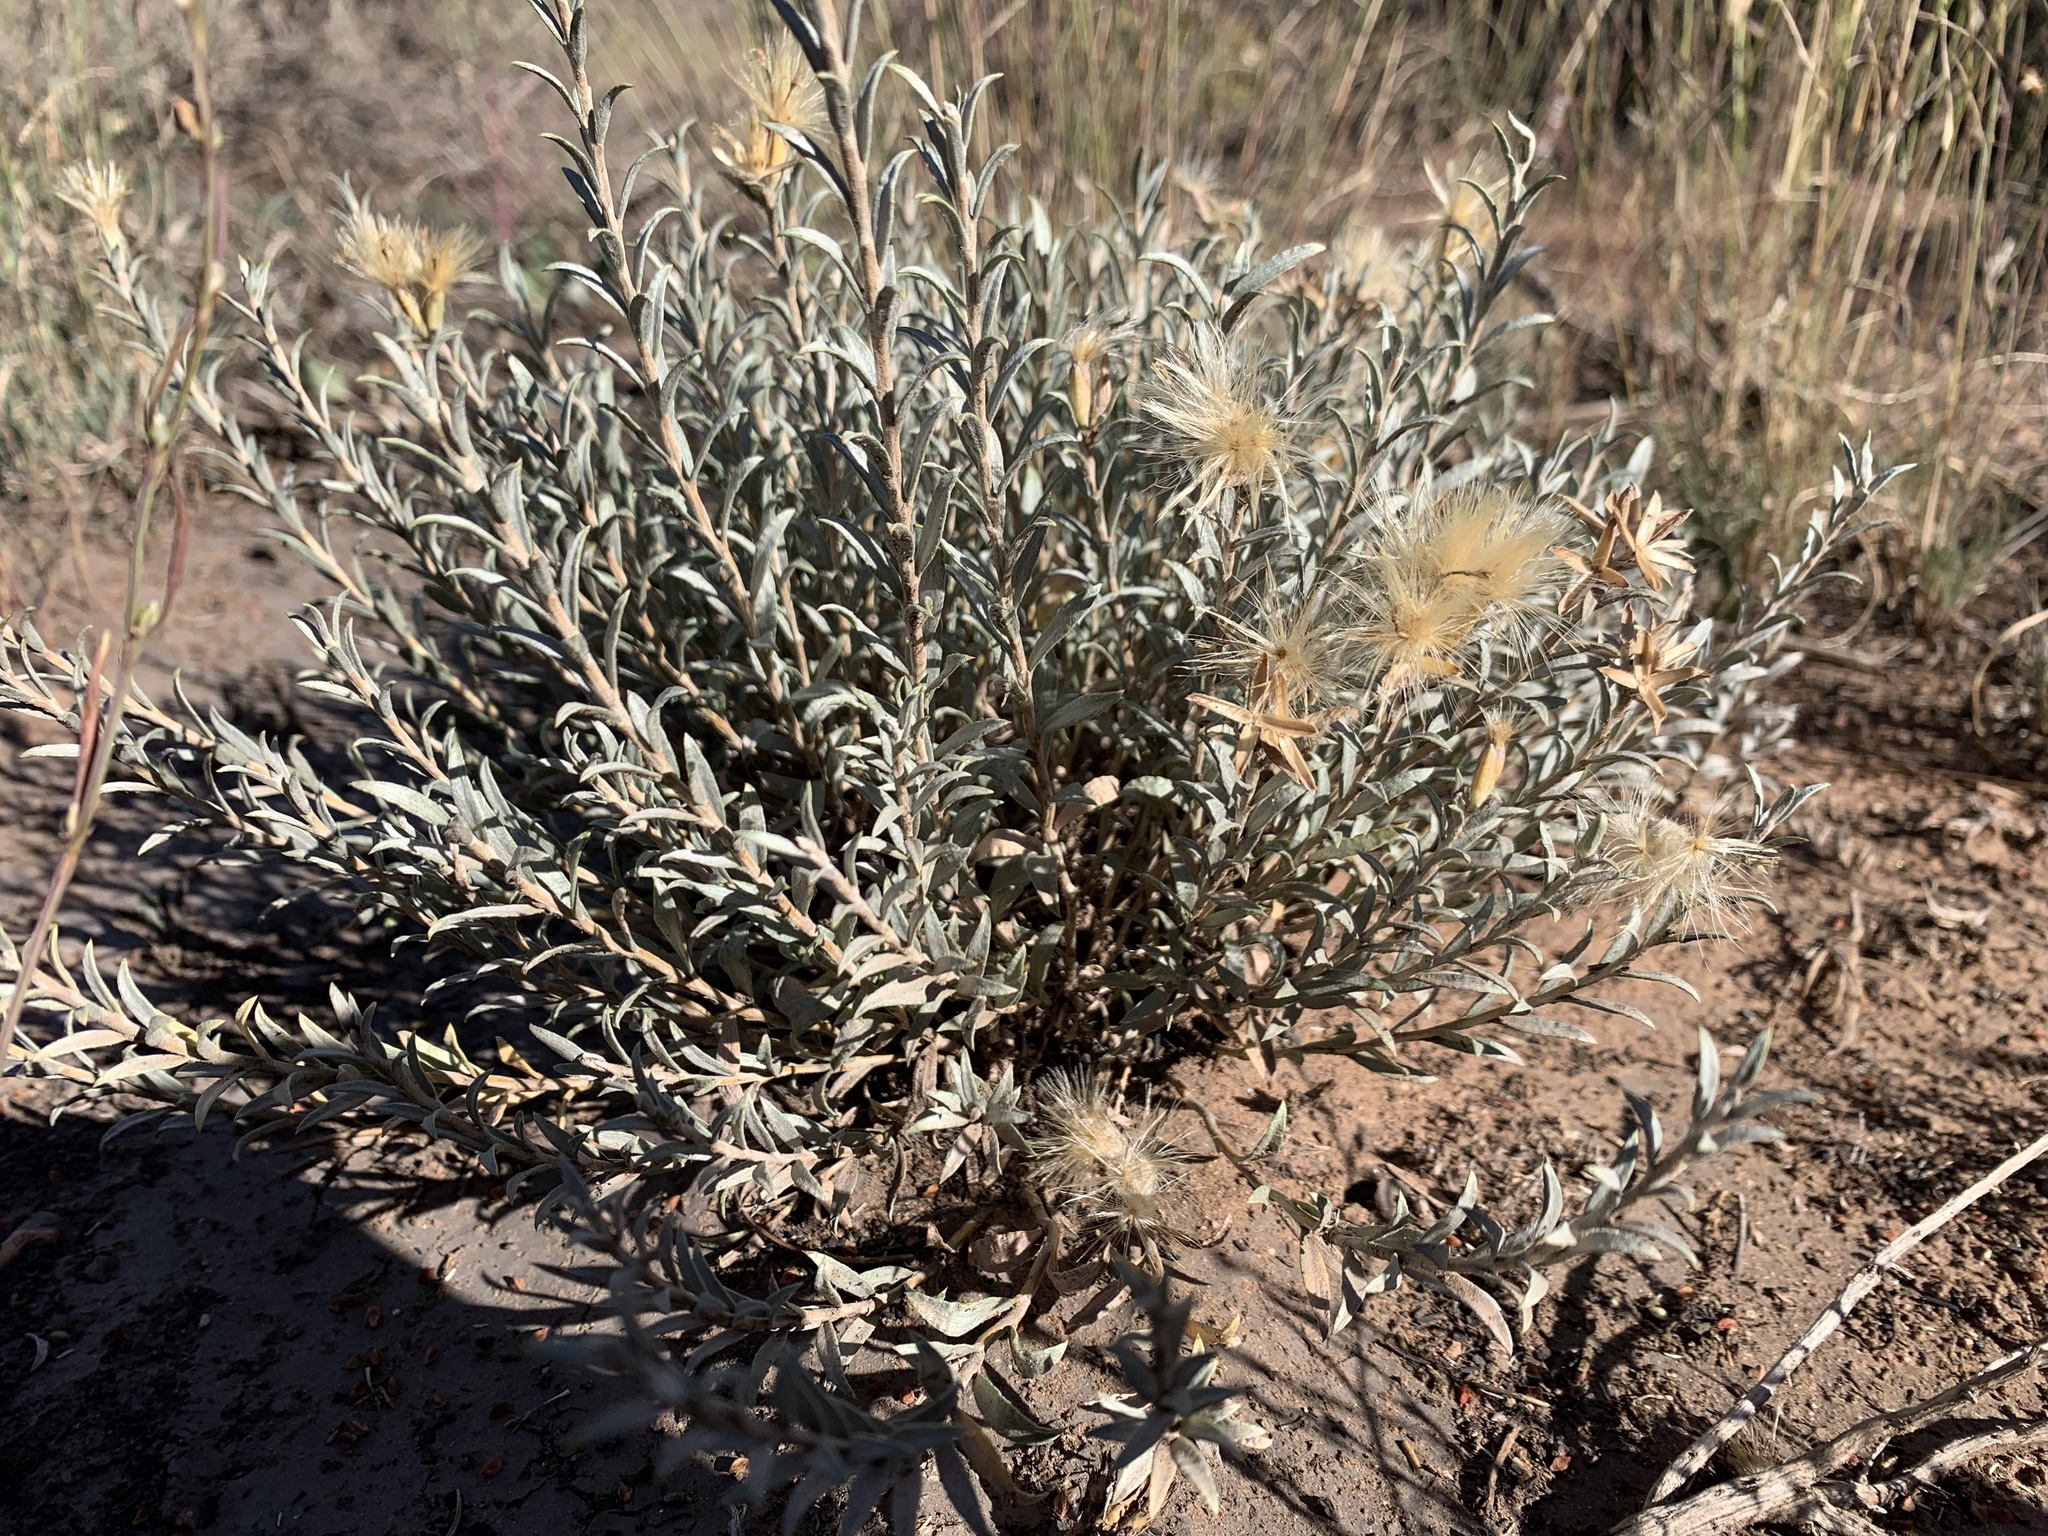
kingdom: Plantae
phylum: Tracheophyta
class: Magnoliopsida
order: Asterales
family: Asteraceae
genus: Tetradymia
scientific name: Tetradymia canescens
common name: Spineless horsebrush
